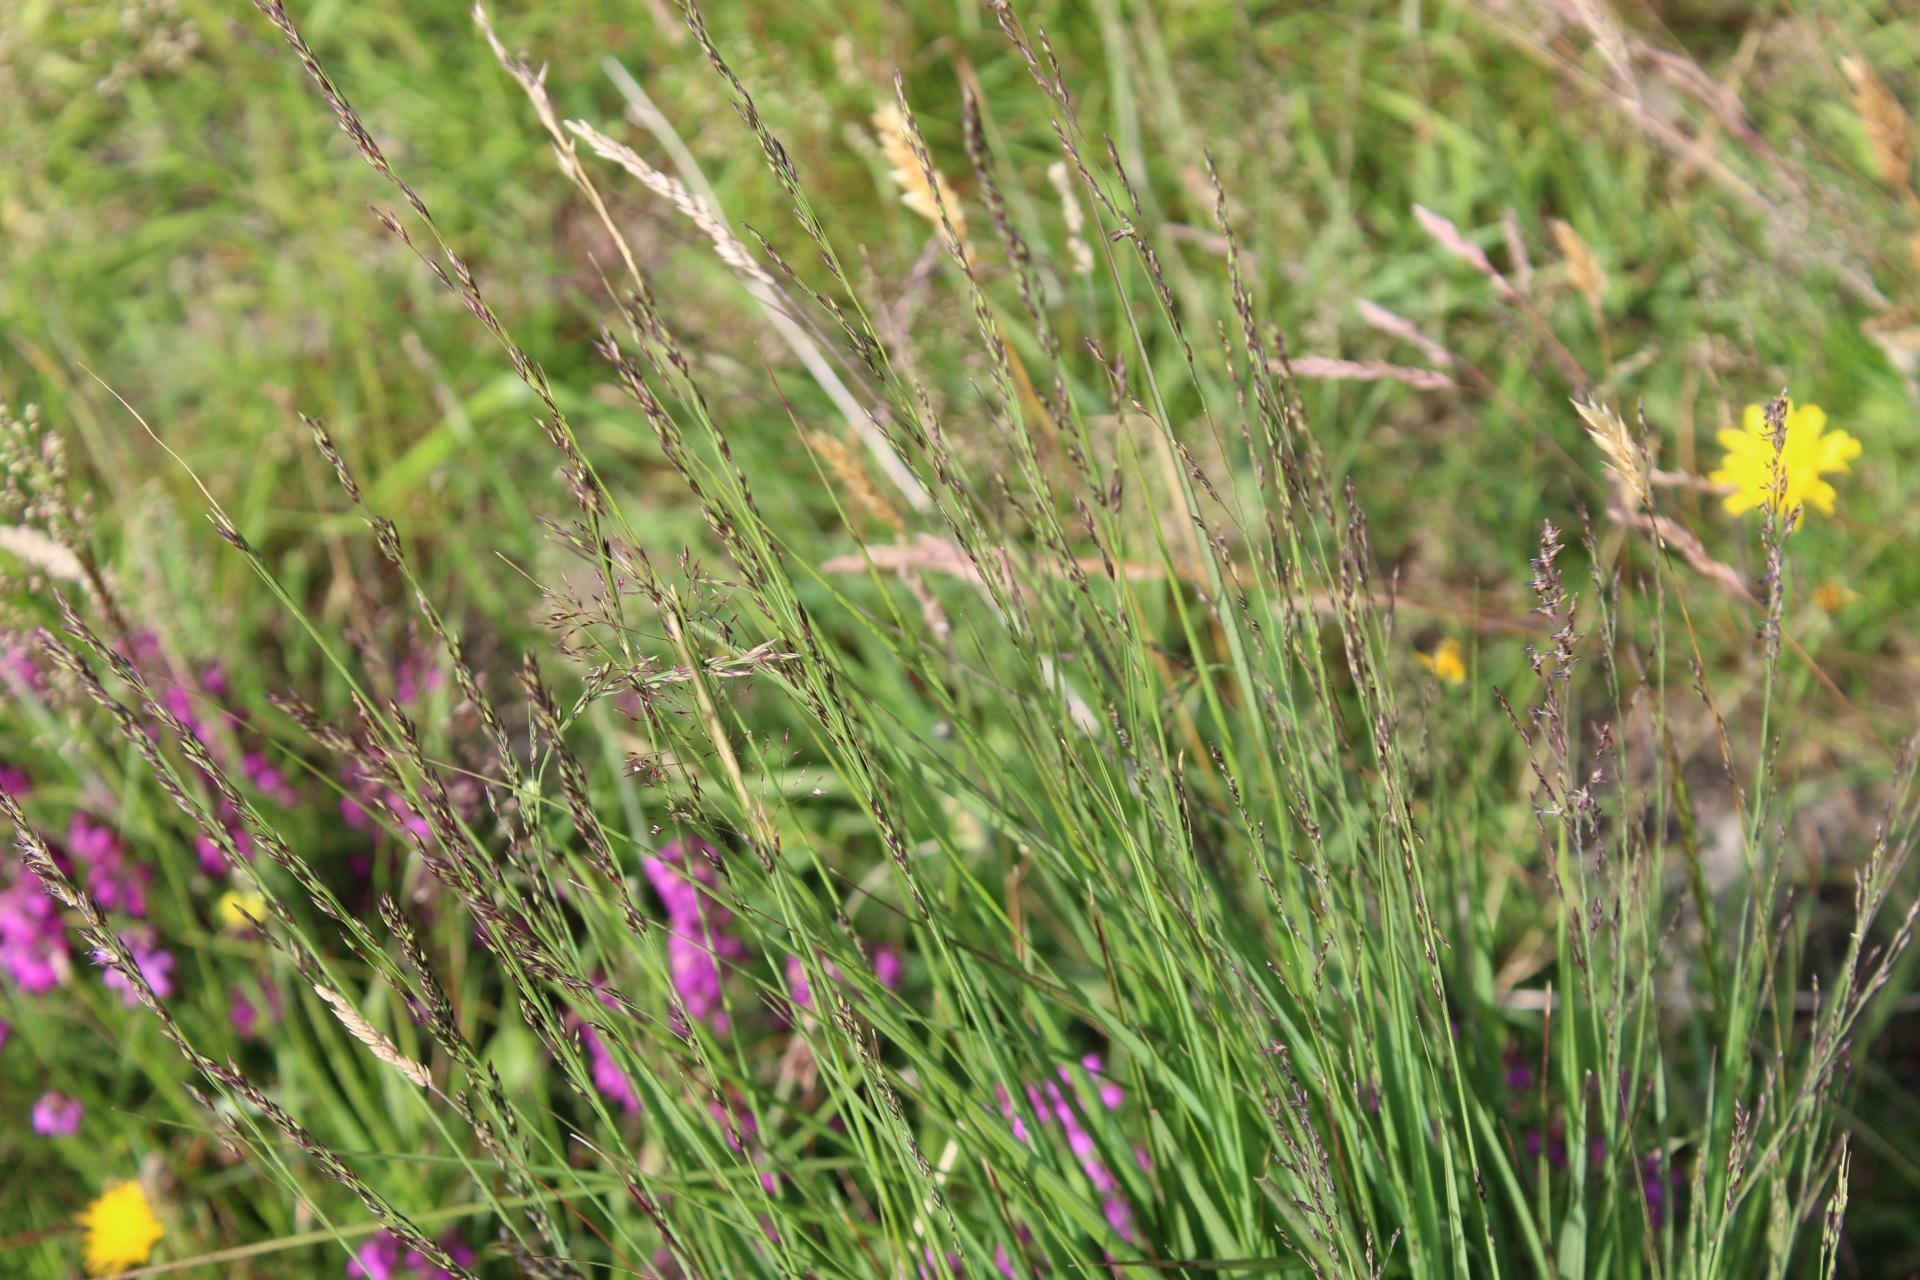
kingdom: Plantae
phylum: Tracheophyta
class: Liliopsida
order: Poales
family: Poaceae
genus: Molinia
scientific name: Molinia caerulea
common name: Purple moor-grass
